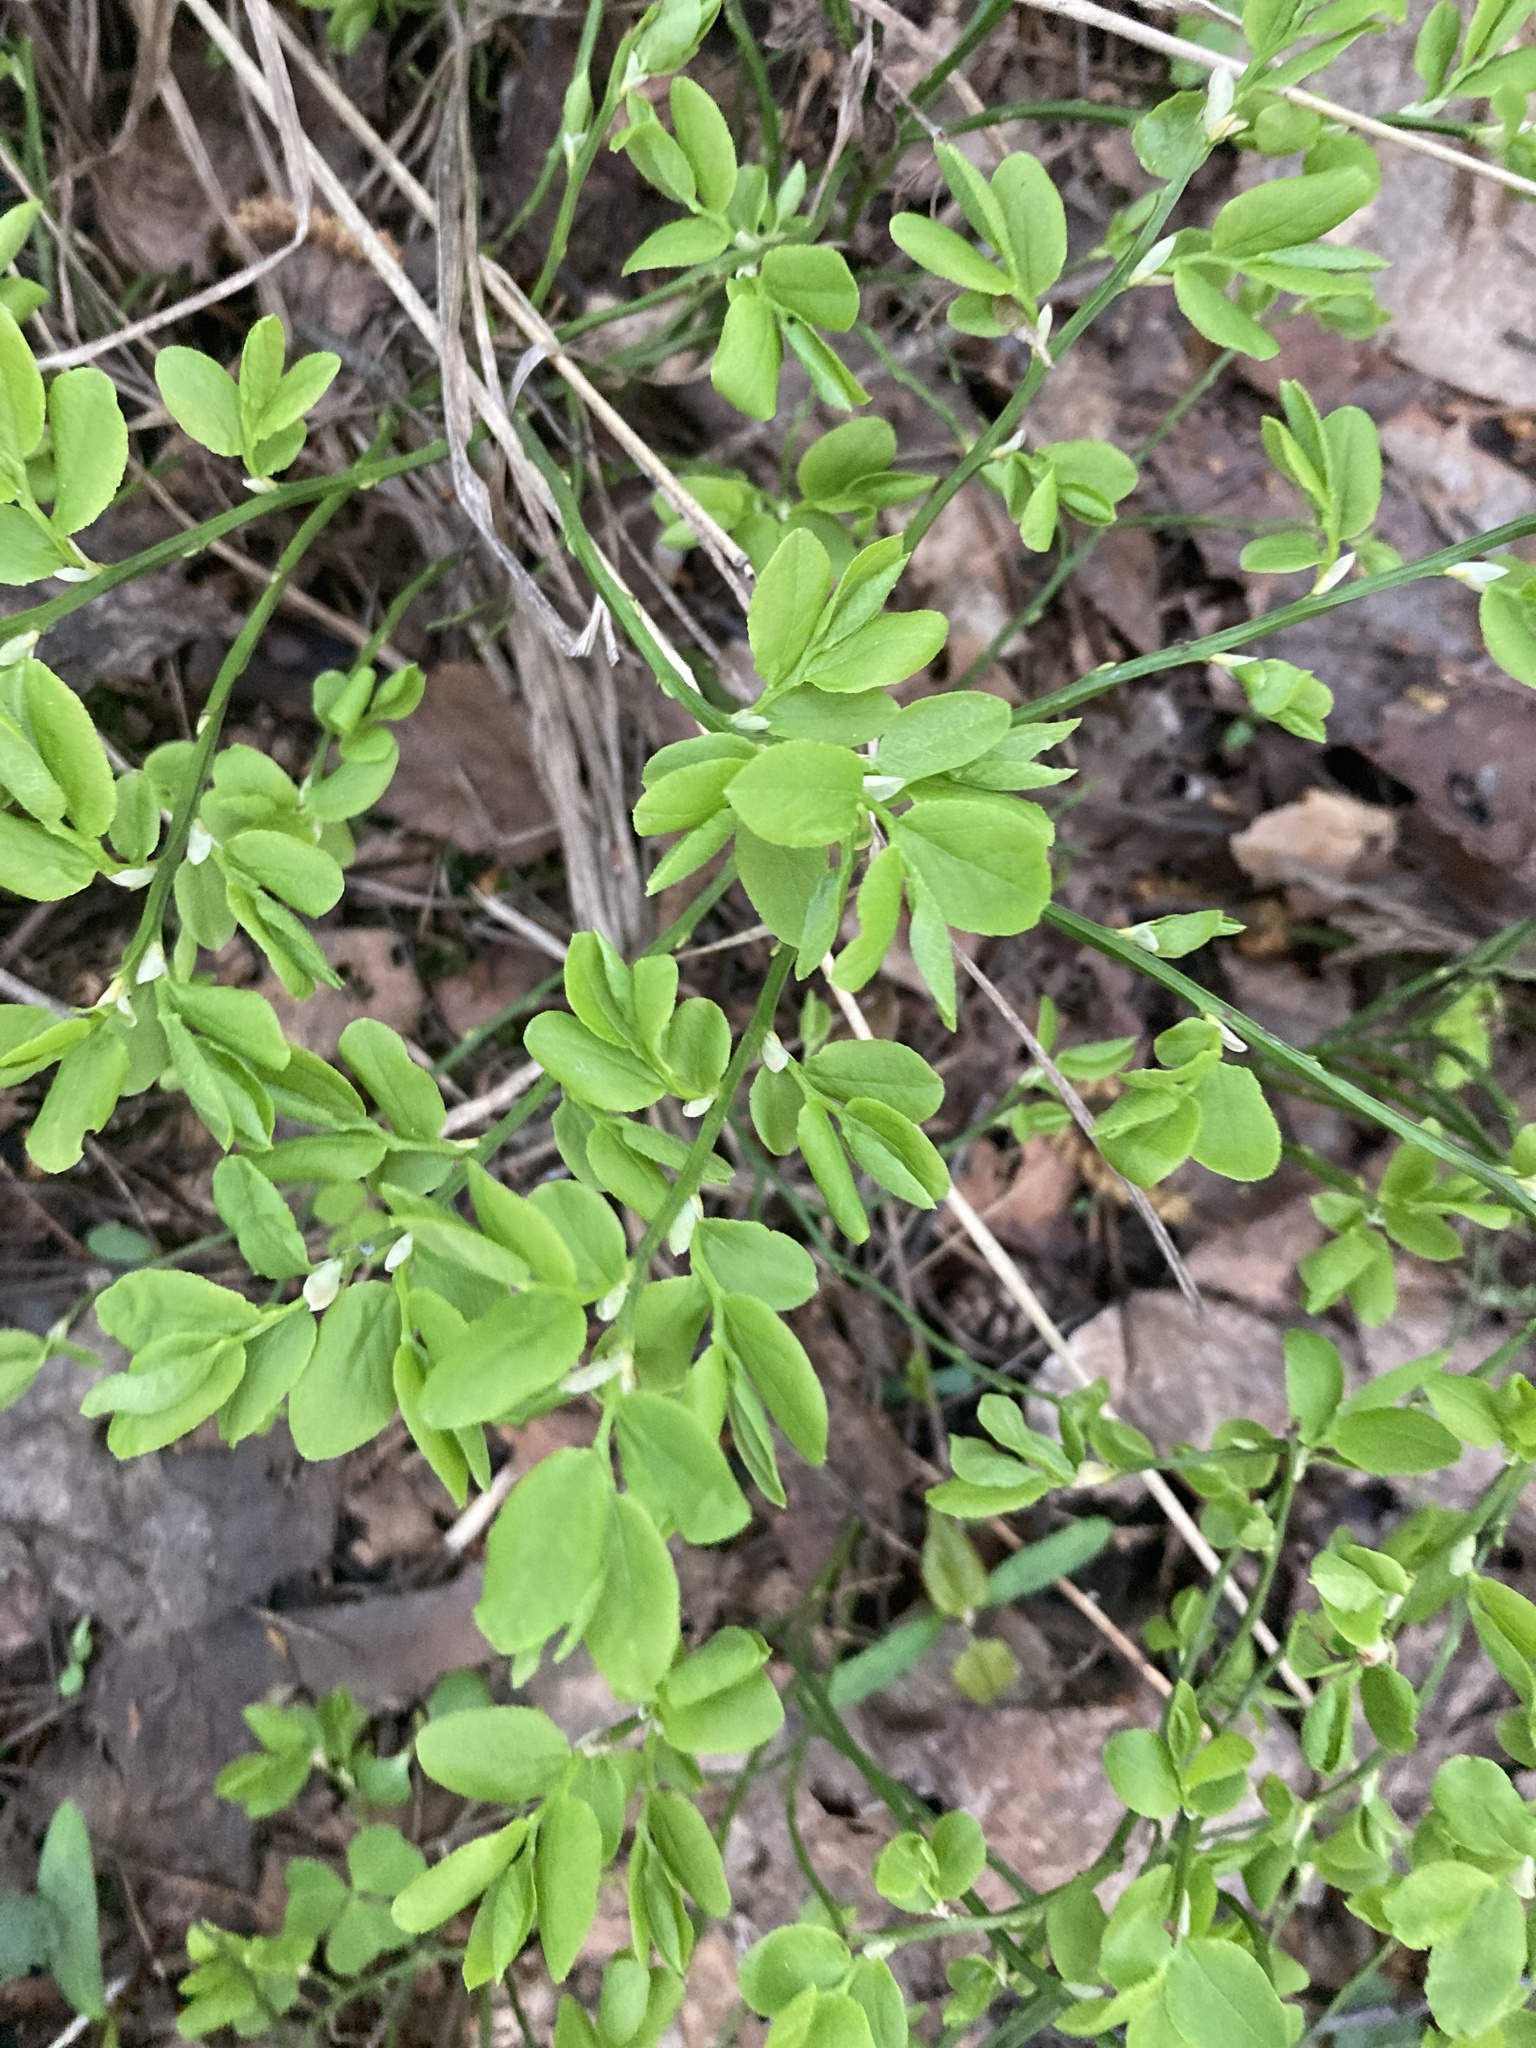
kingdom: Plantae
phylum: Tracheophyta
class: Magnoliopsida
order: Ericales
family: Ericaceae
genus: Vaccinium
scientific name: Vaccinium myrtillus
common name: Bilberry
